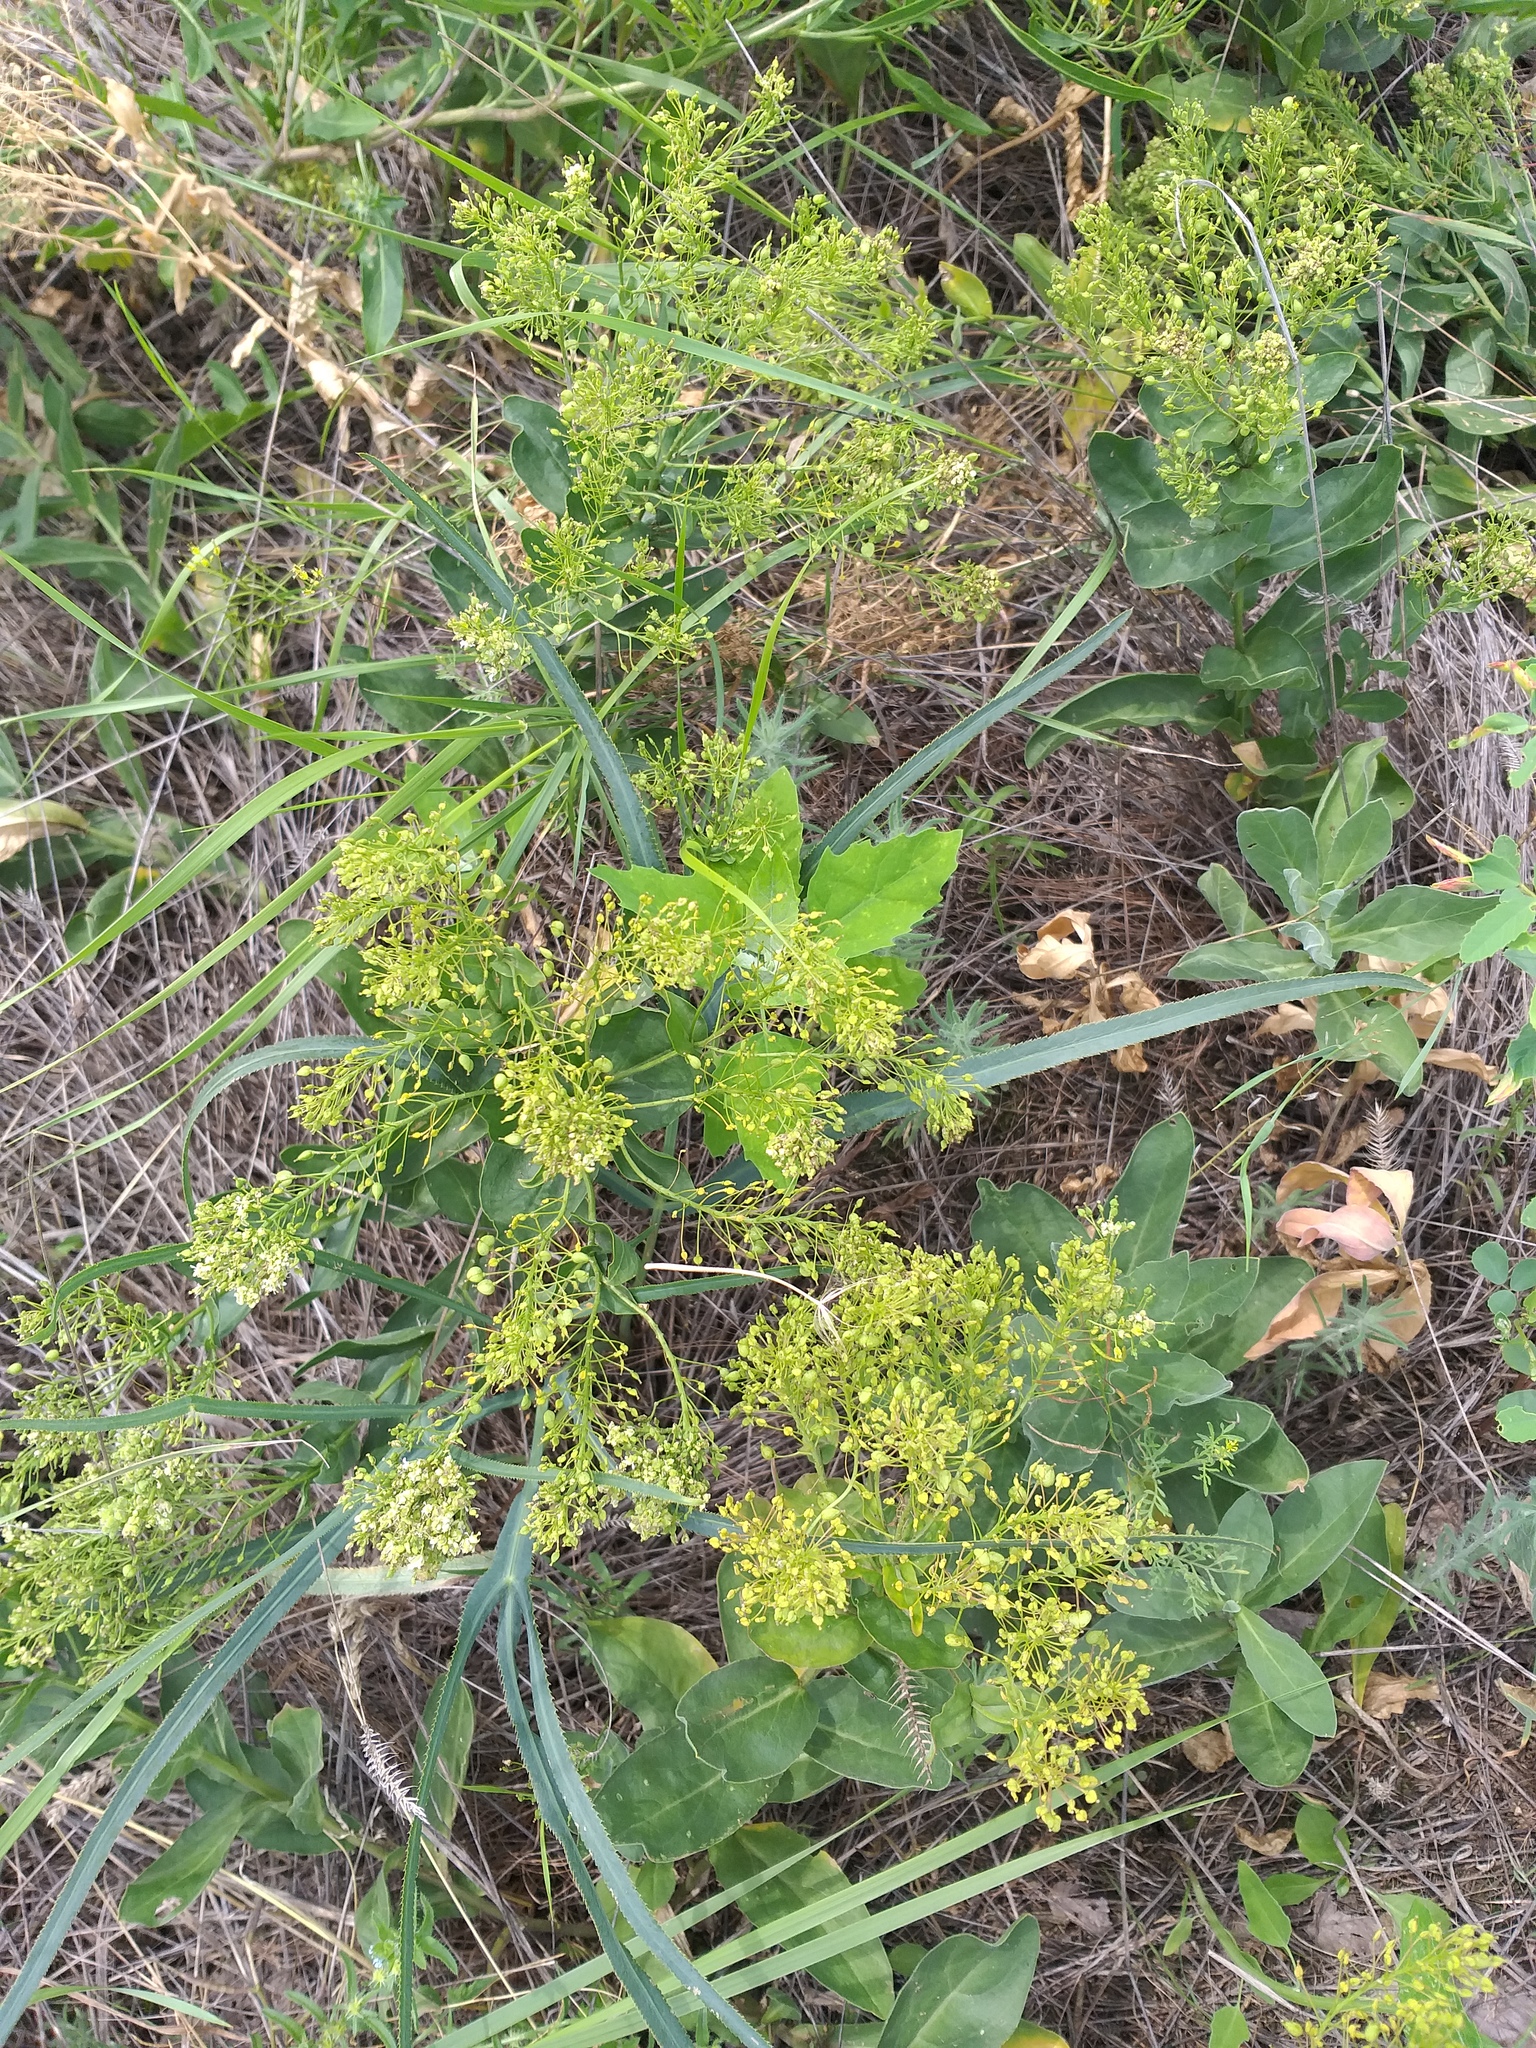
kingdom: Plantae
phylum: Tracheophyta
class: Magnoliopsida
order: Brassicales
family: Brassicaceae
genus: Lepidium
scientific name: Lepidium draba
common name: Hoary cress
